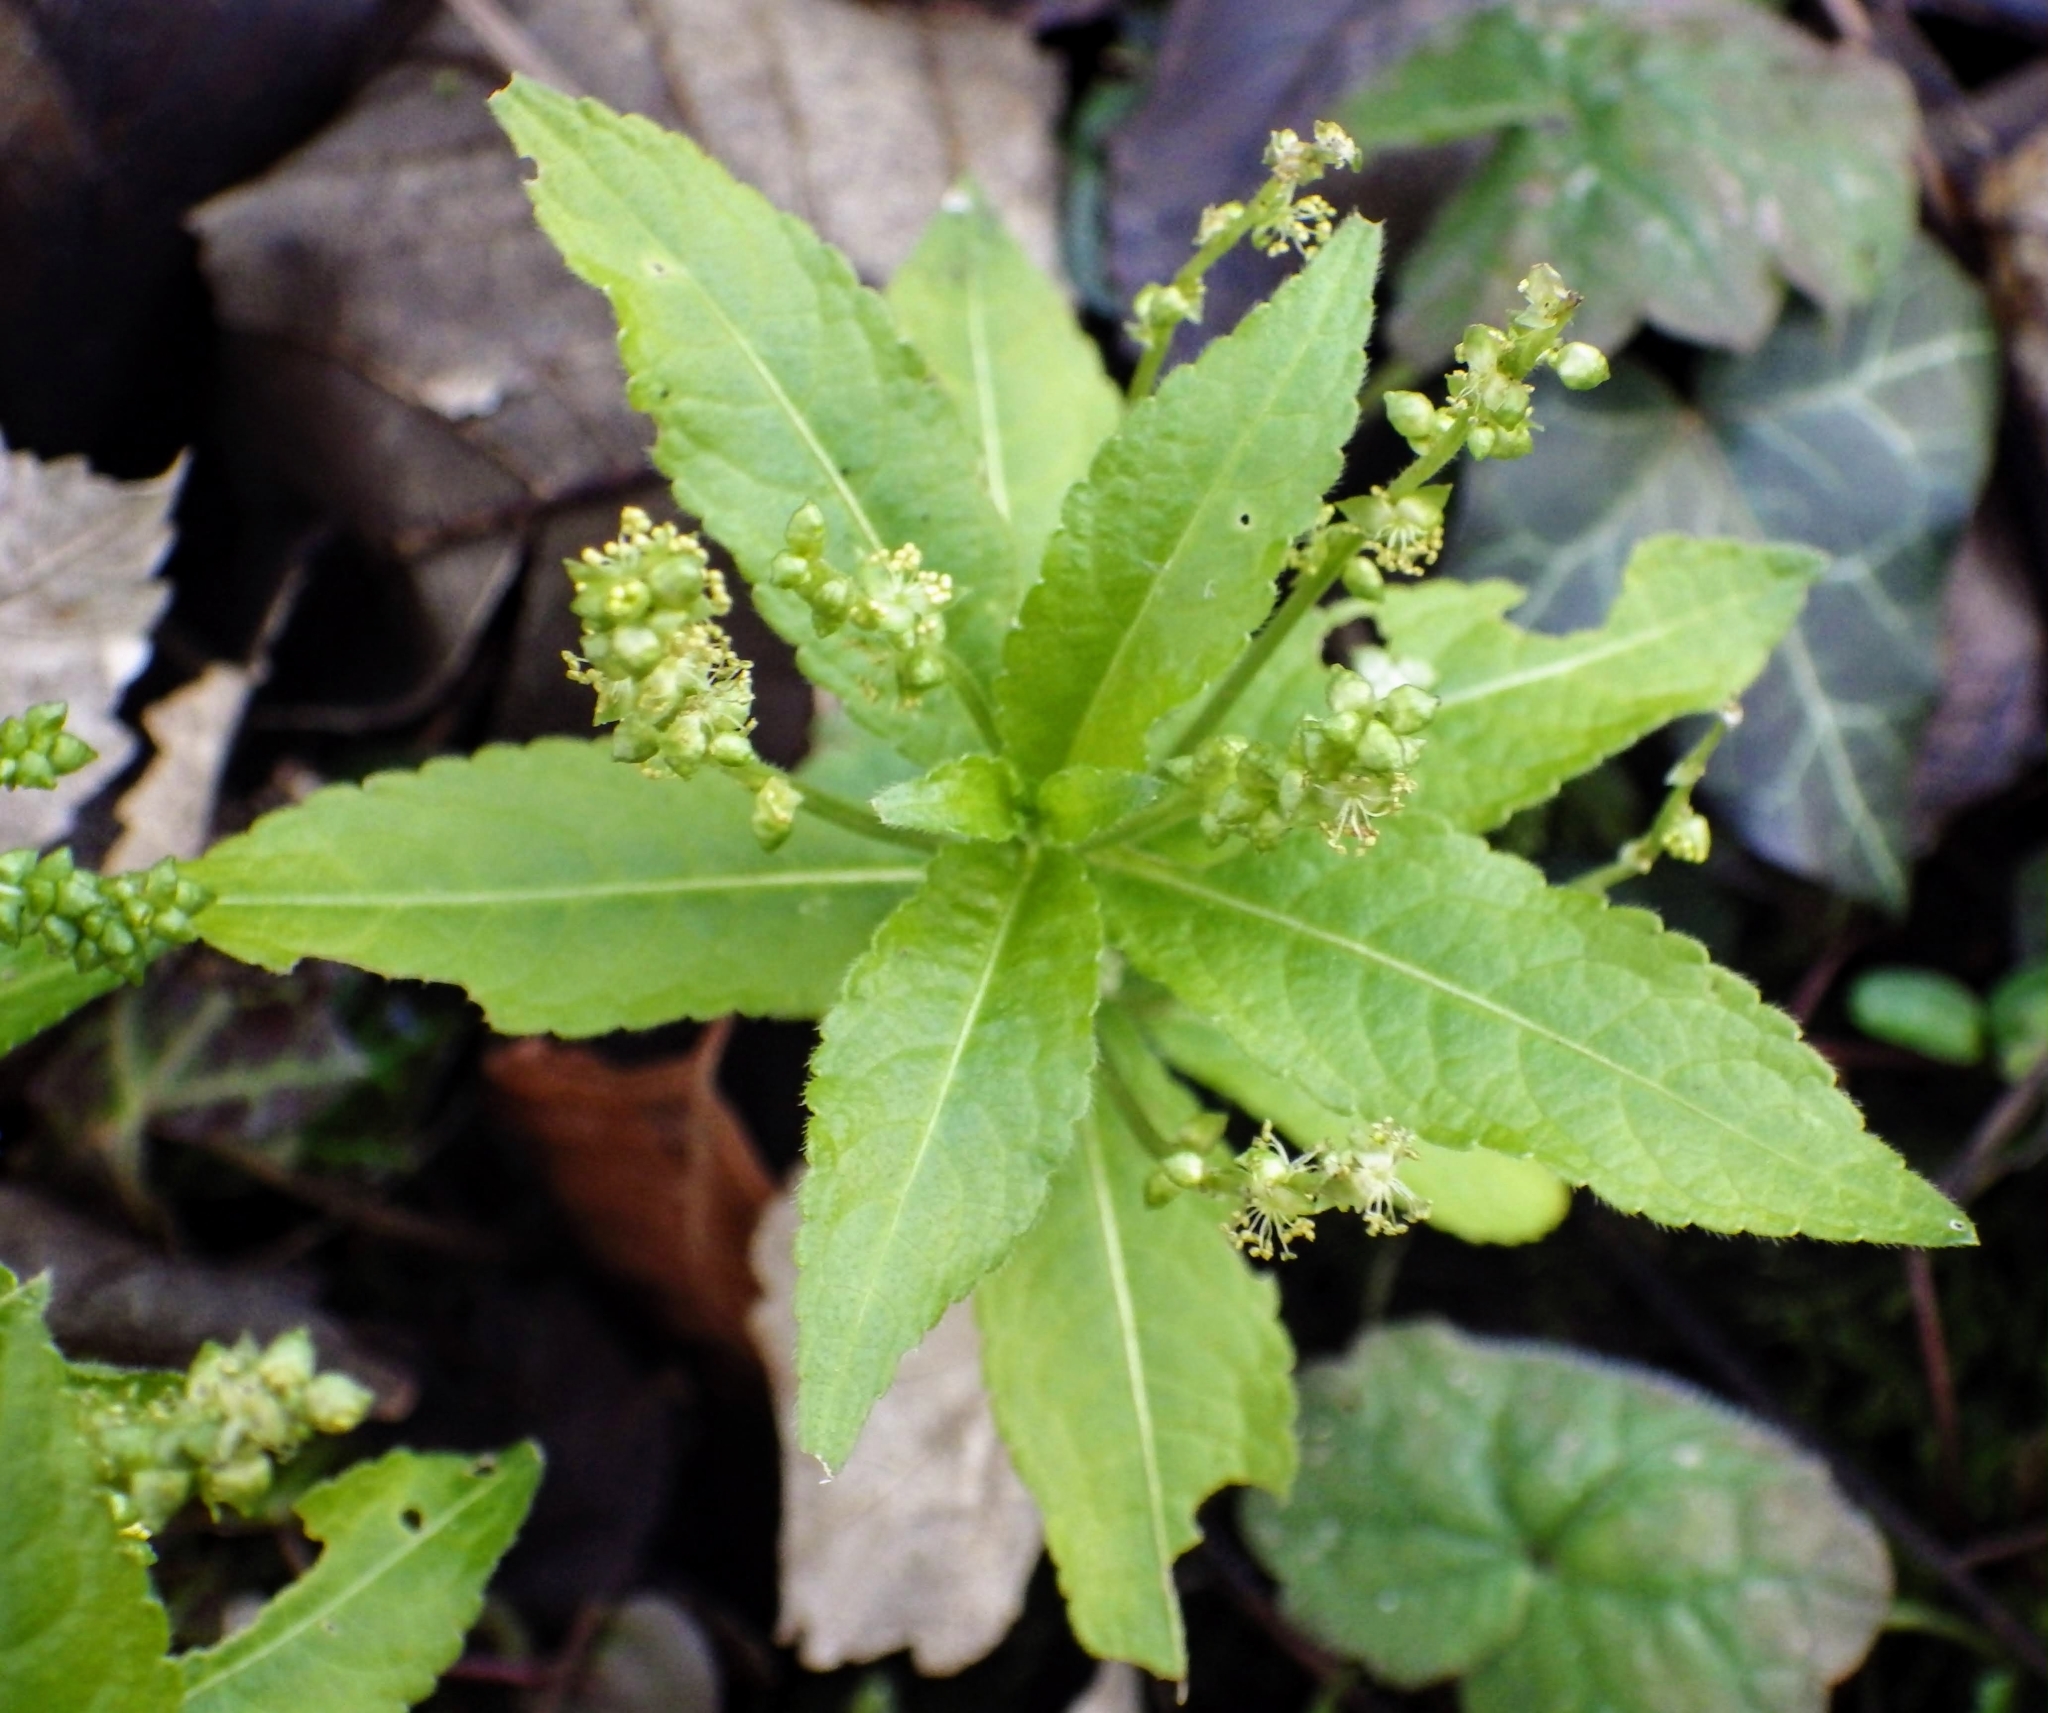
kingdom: Plantae
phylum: Tracheophyta
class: Magnoliopsida
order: Malpighiales
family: Euphorbiaceae
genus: Mercurialis
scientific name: Mercurialis perennis
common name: Dog mercury
